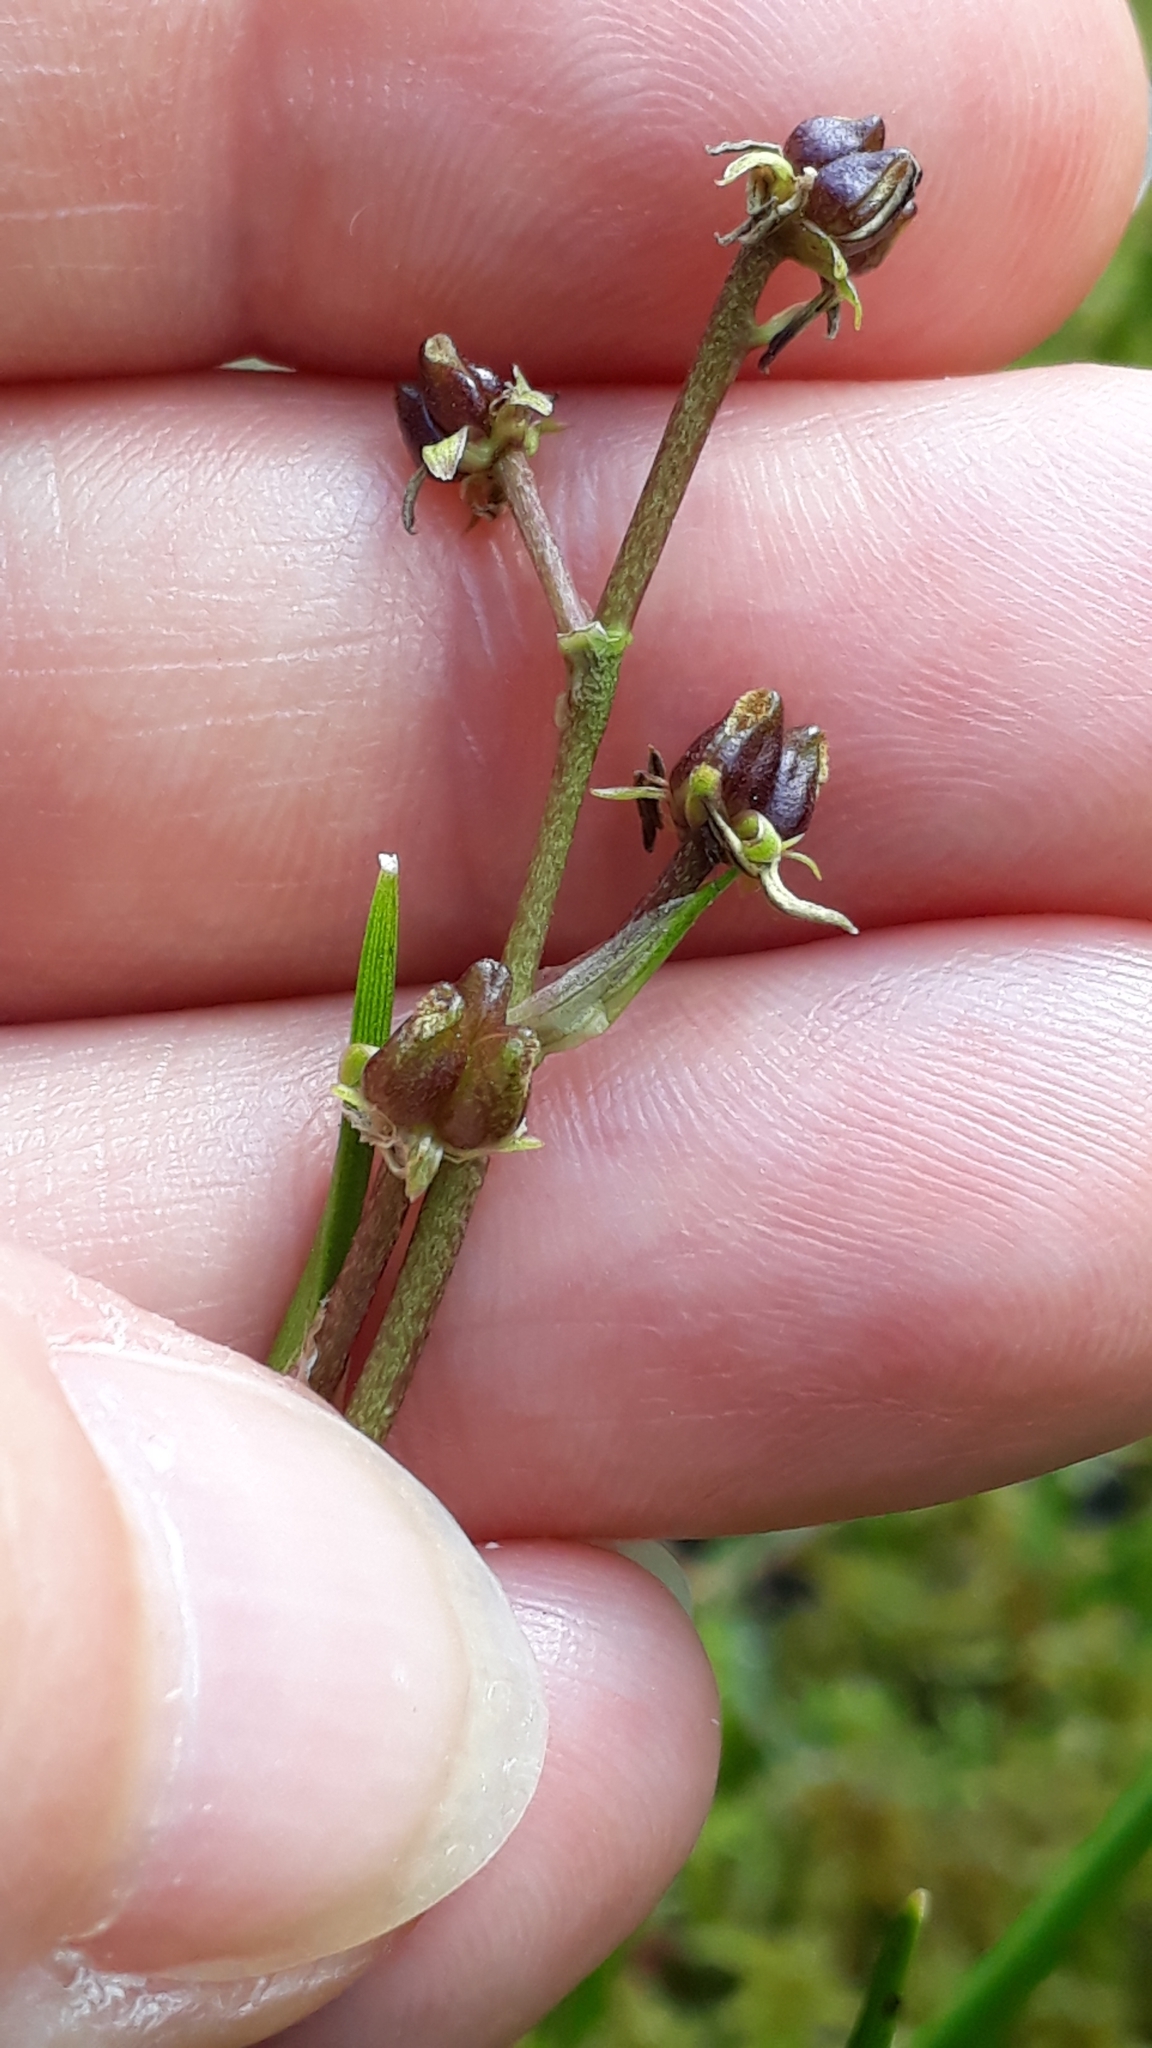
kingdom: Plantae
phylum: Tracheophyta
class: Liliopsida
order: Alismatales
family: Scheuchzeriaceae
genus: Scheuchzeria
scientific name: Scheuchzeria palustris
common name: Rannoch-rush
